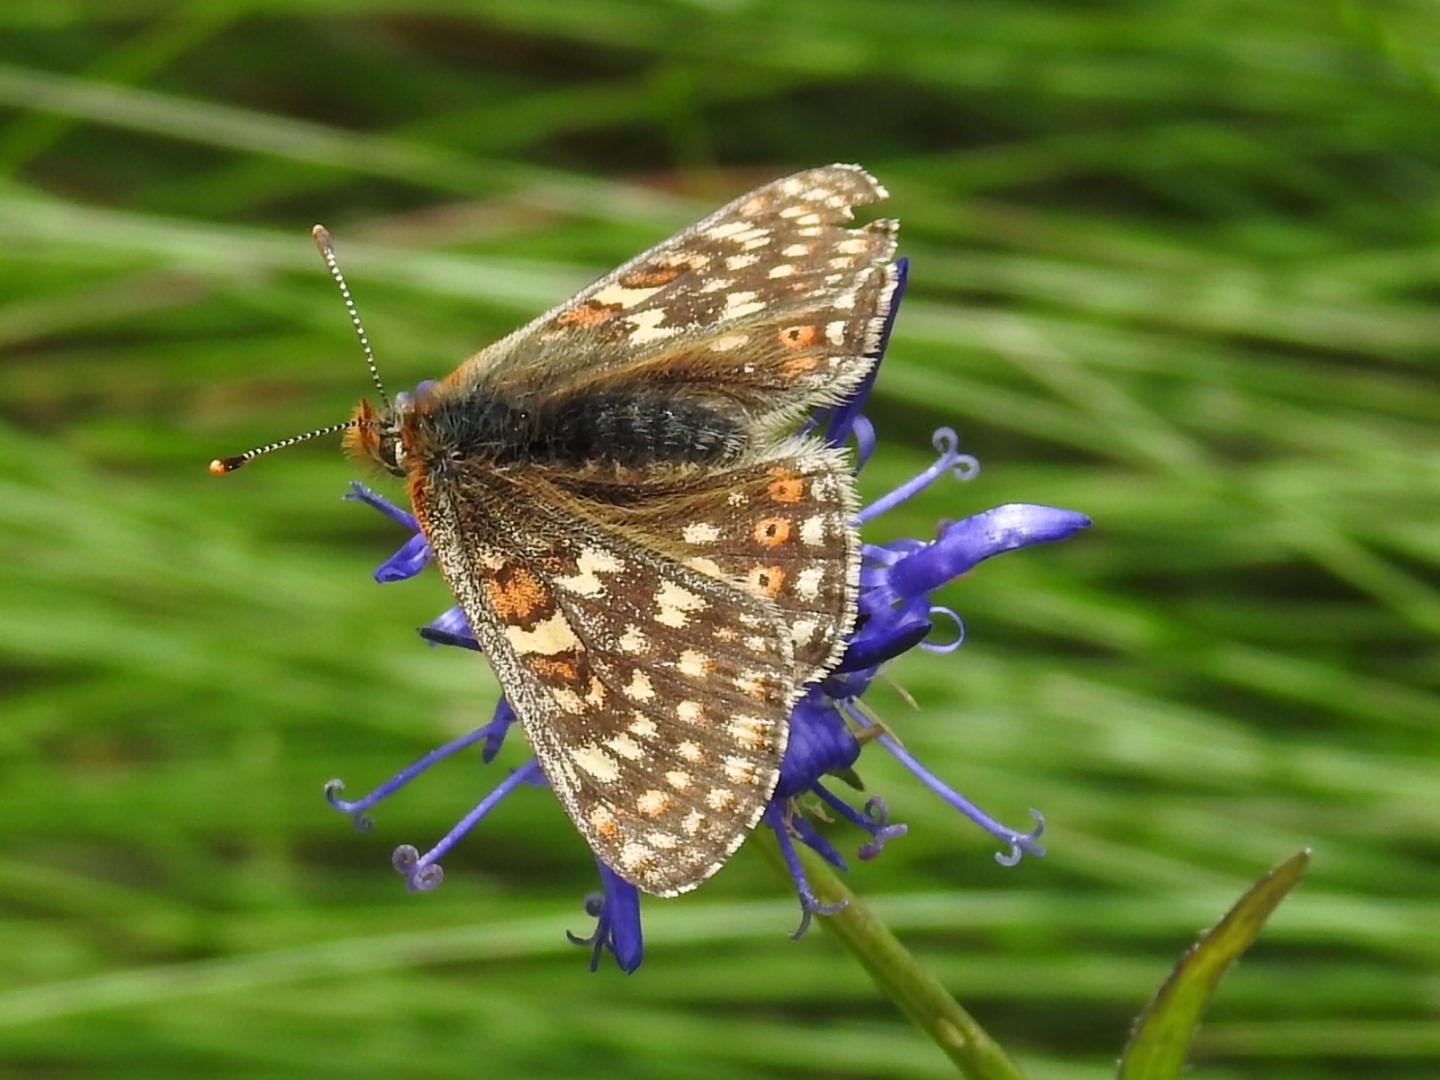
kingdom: Animalia
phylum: Arthropoda
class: Insecta
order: Lepidoptera
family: Nymphalidae
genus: Euphydryas
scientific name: Euphydryas aurinia
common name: Marsh fritillary
